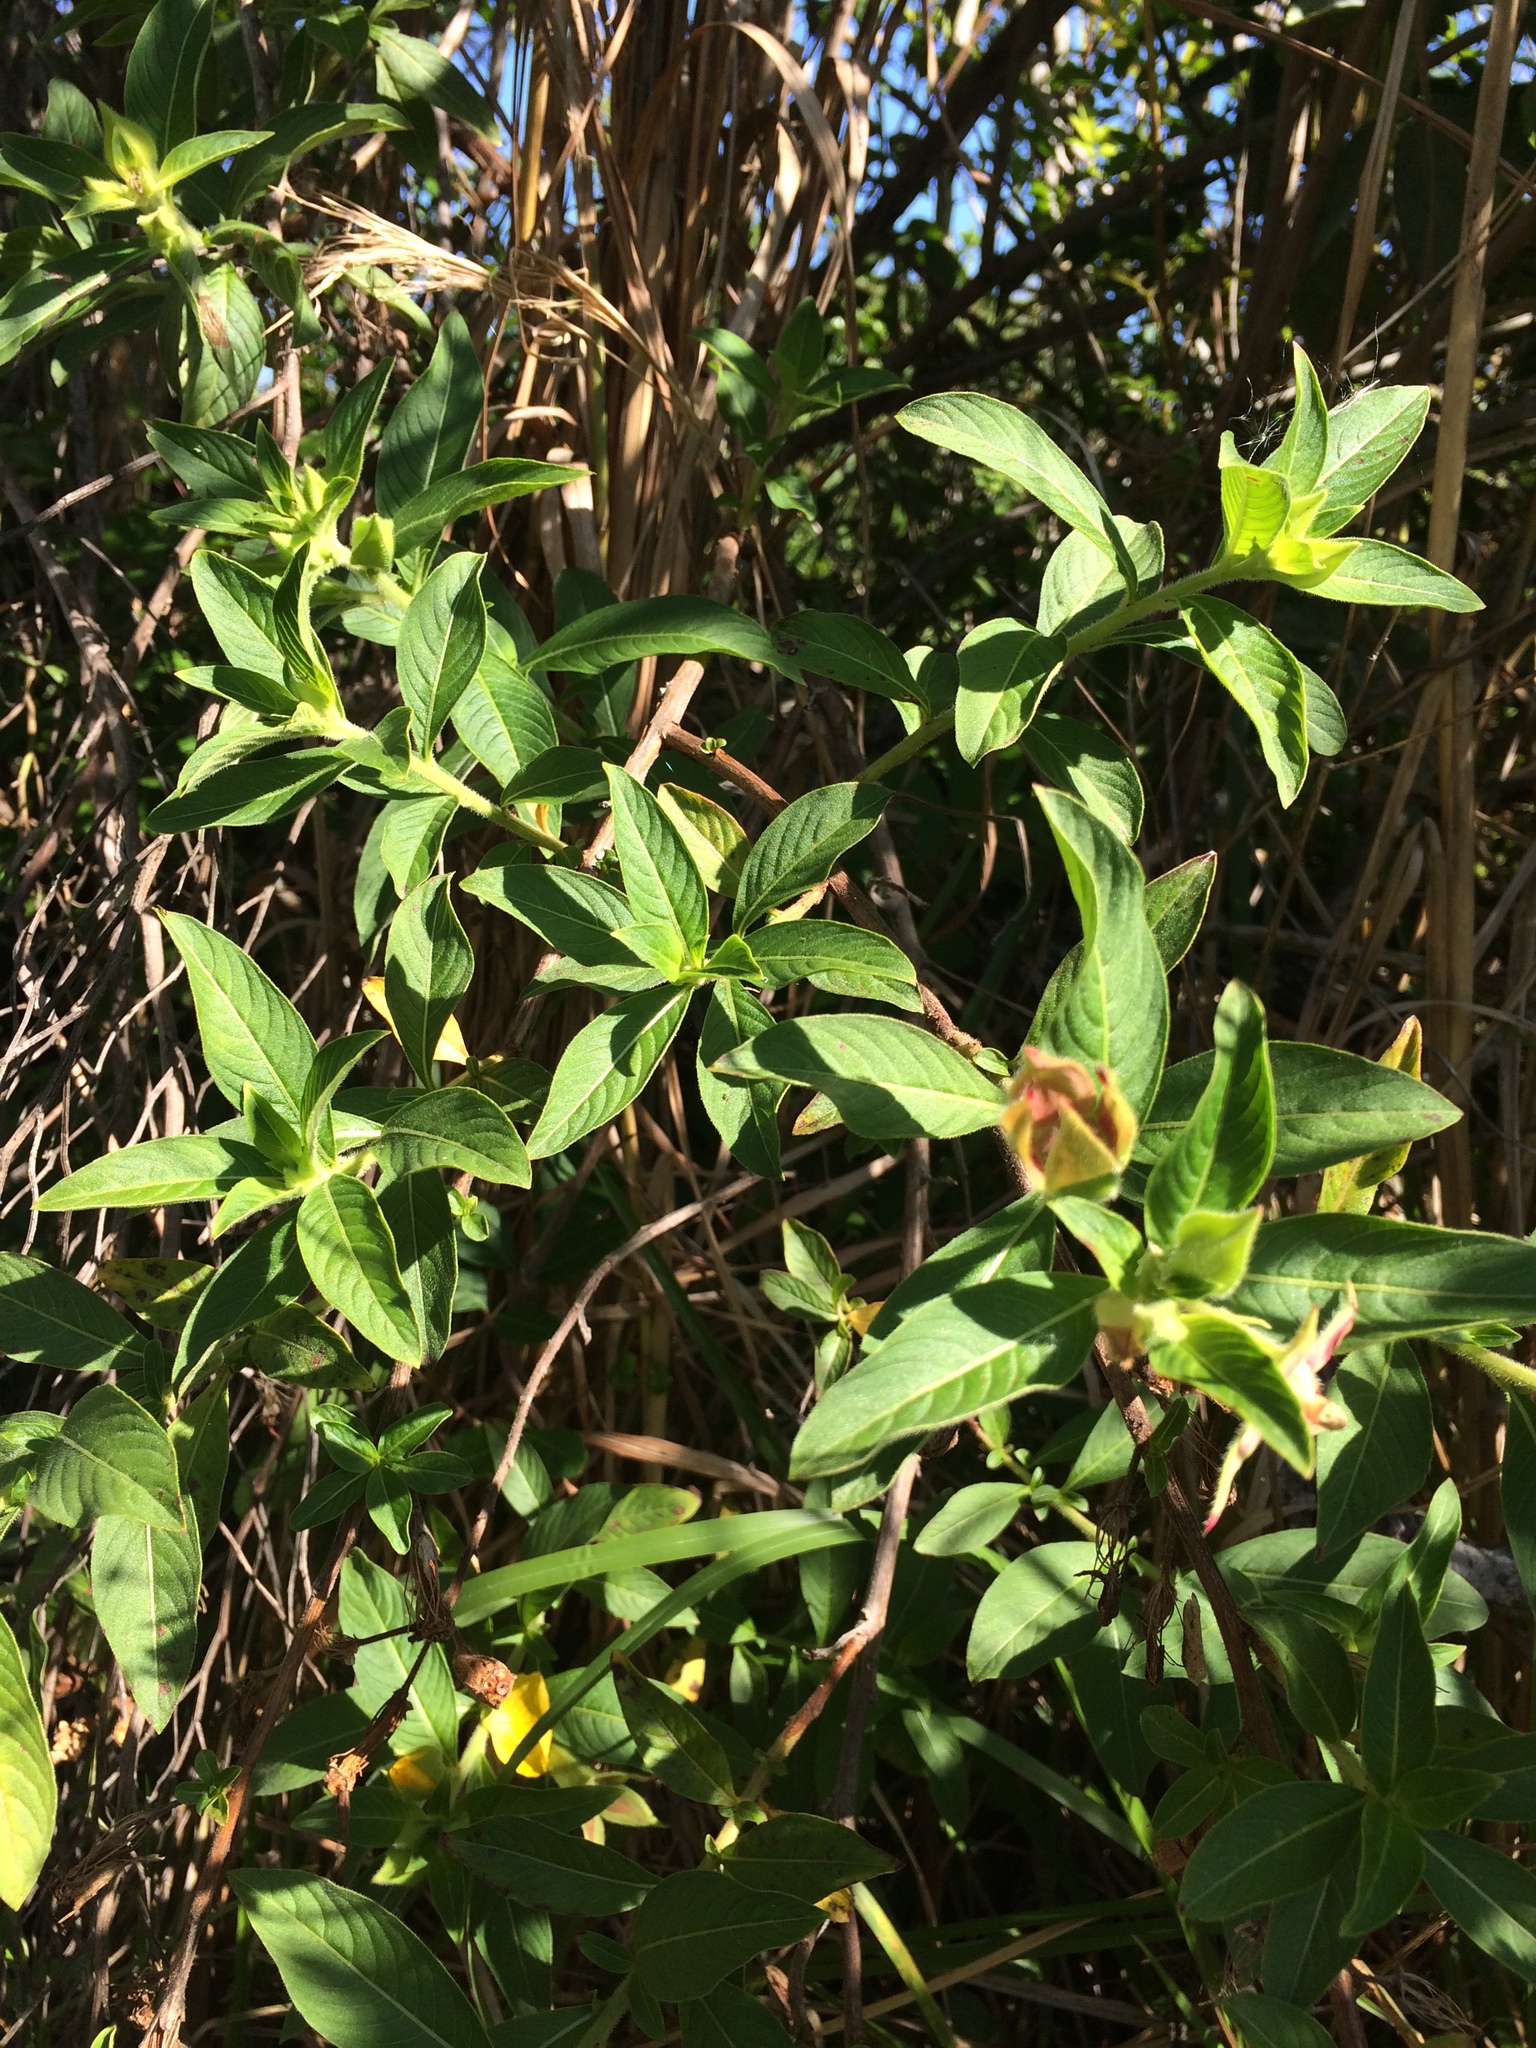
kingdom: Plantae
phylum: Tracheophyta
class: Magnoliopsida
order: Myrtales
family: Onagraceae
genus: Ludwigia
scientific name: Ludwigia peruviana
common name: Peruvian primrose-willow
